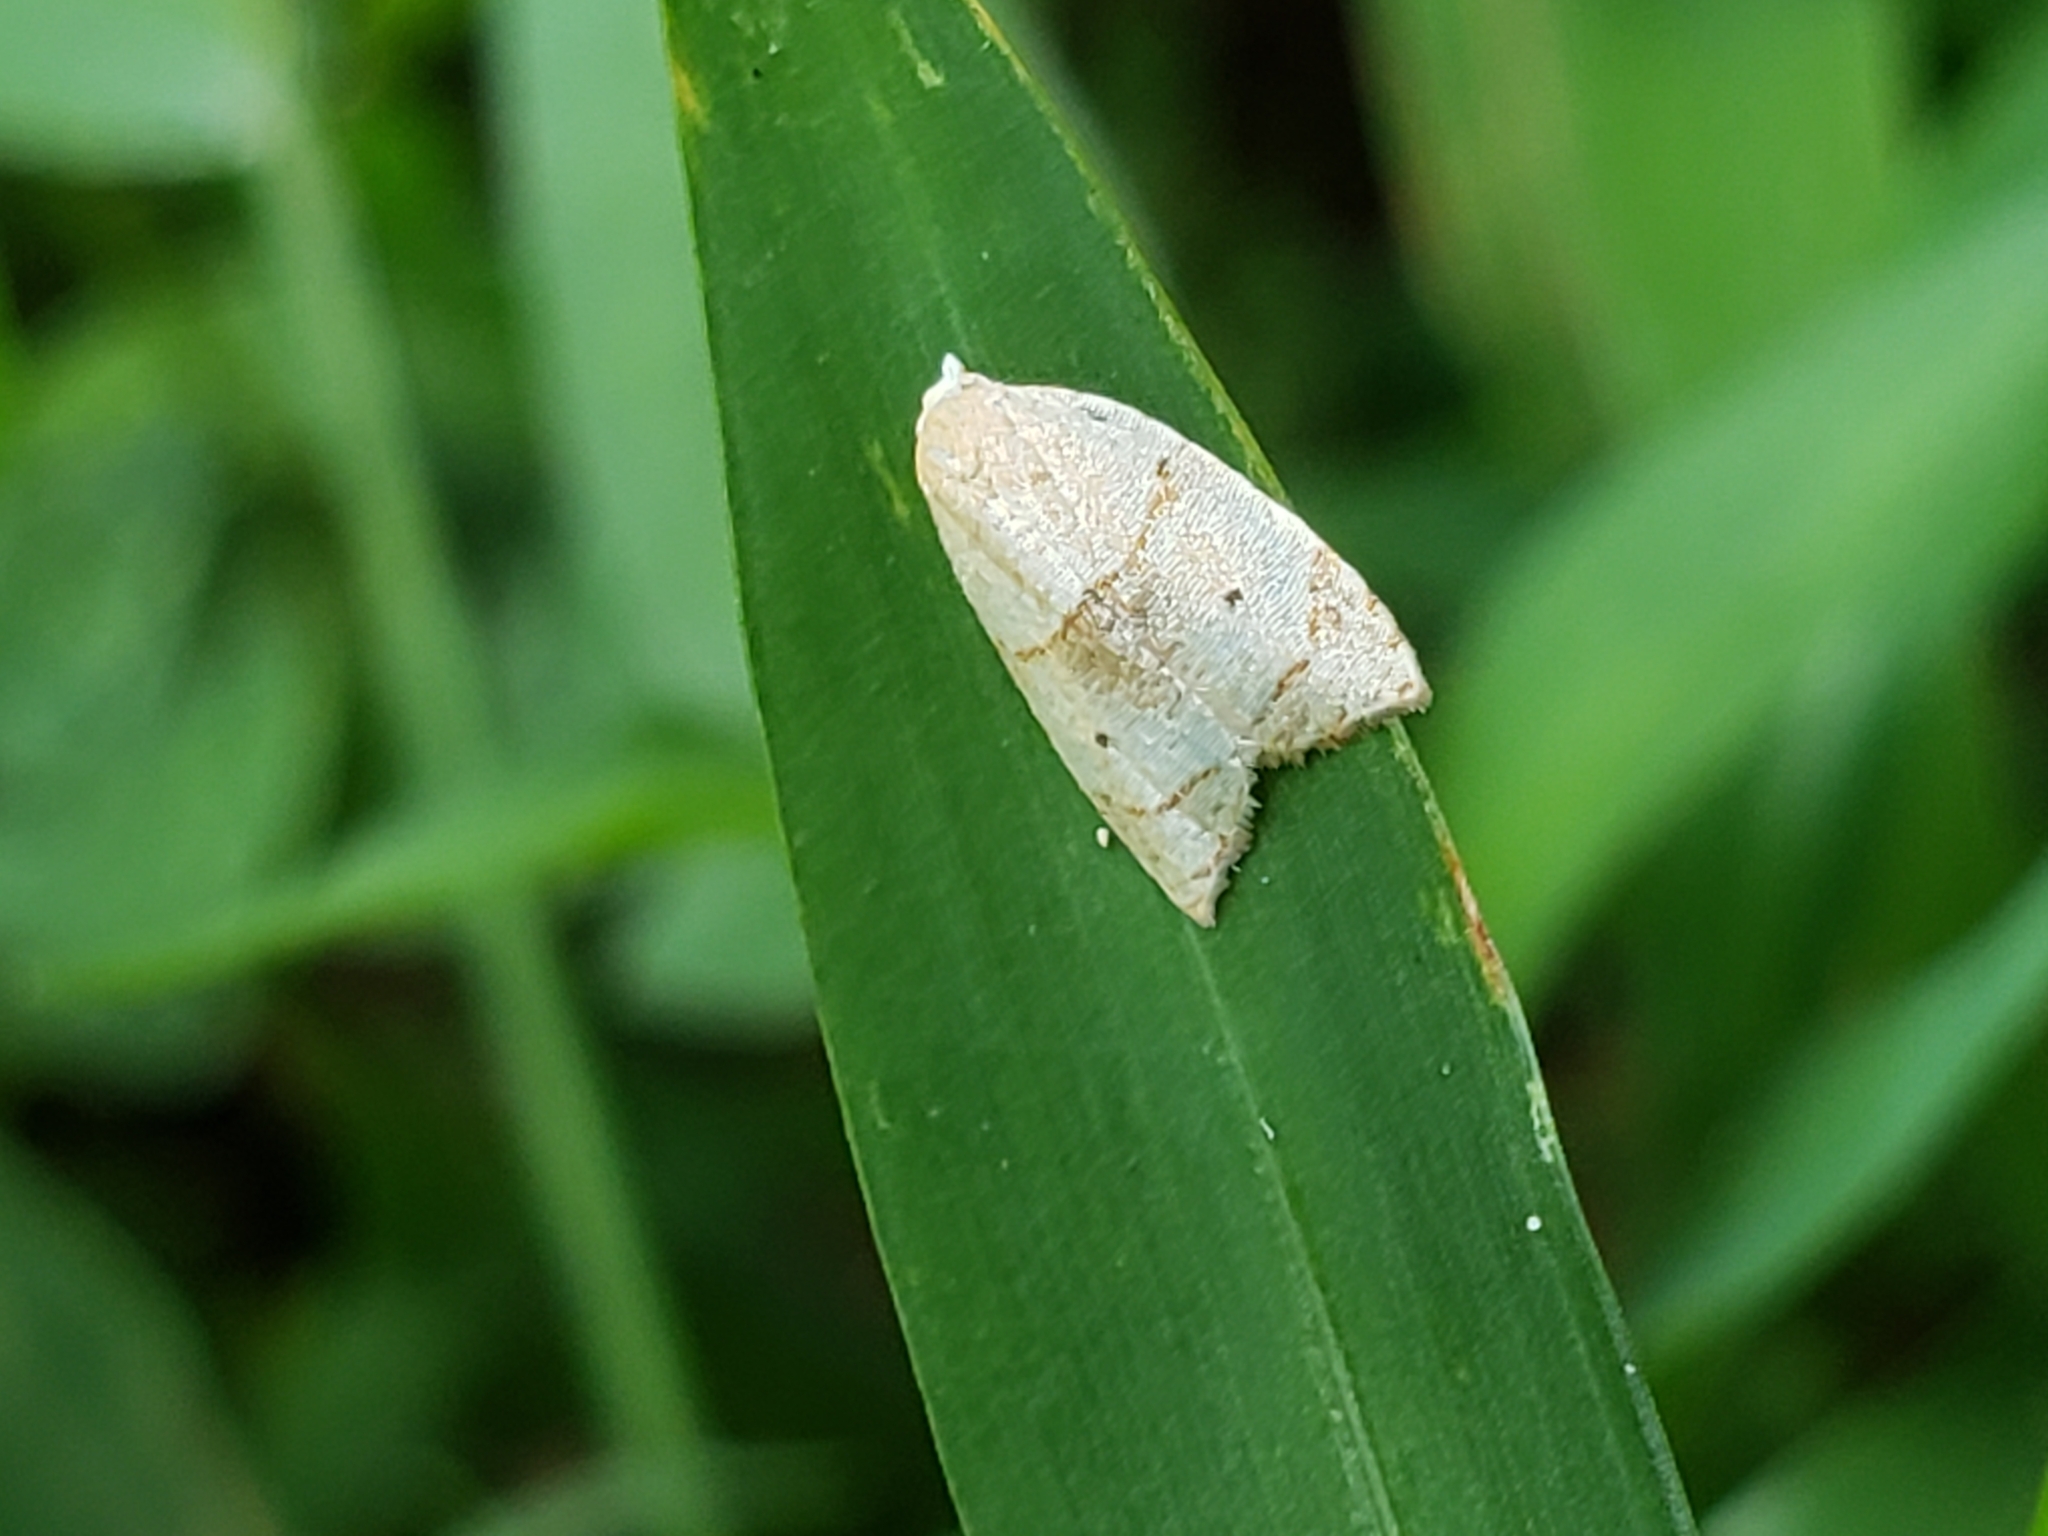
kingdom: Animalia
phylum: Arthropoda
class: Insecta
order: Lepidoptera
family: Tortricidae
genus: Coelostathma
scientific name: Coelostathma discopunctana
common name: Batman moth
